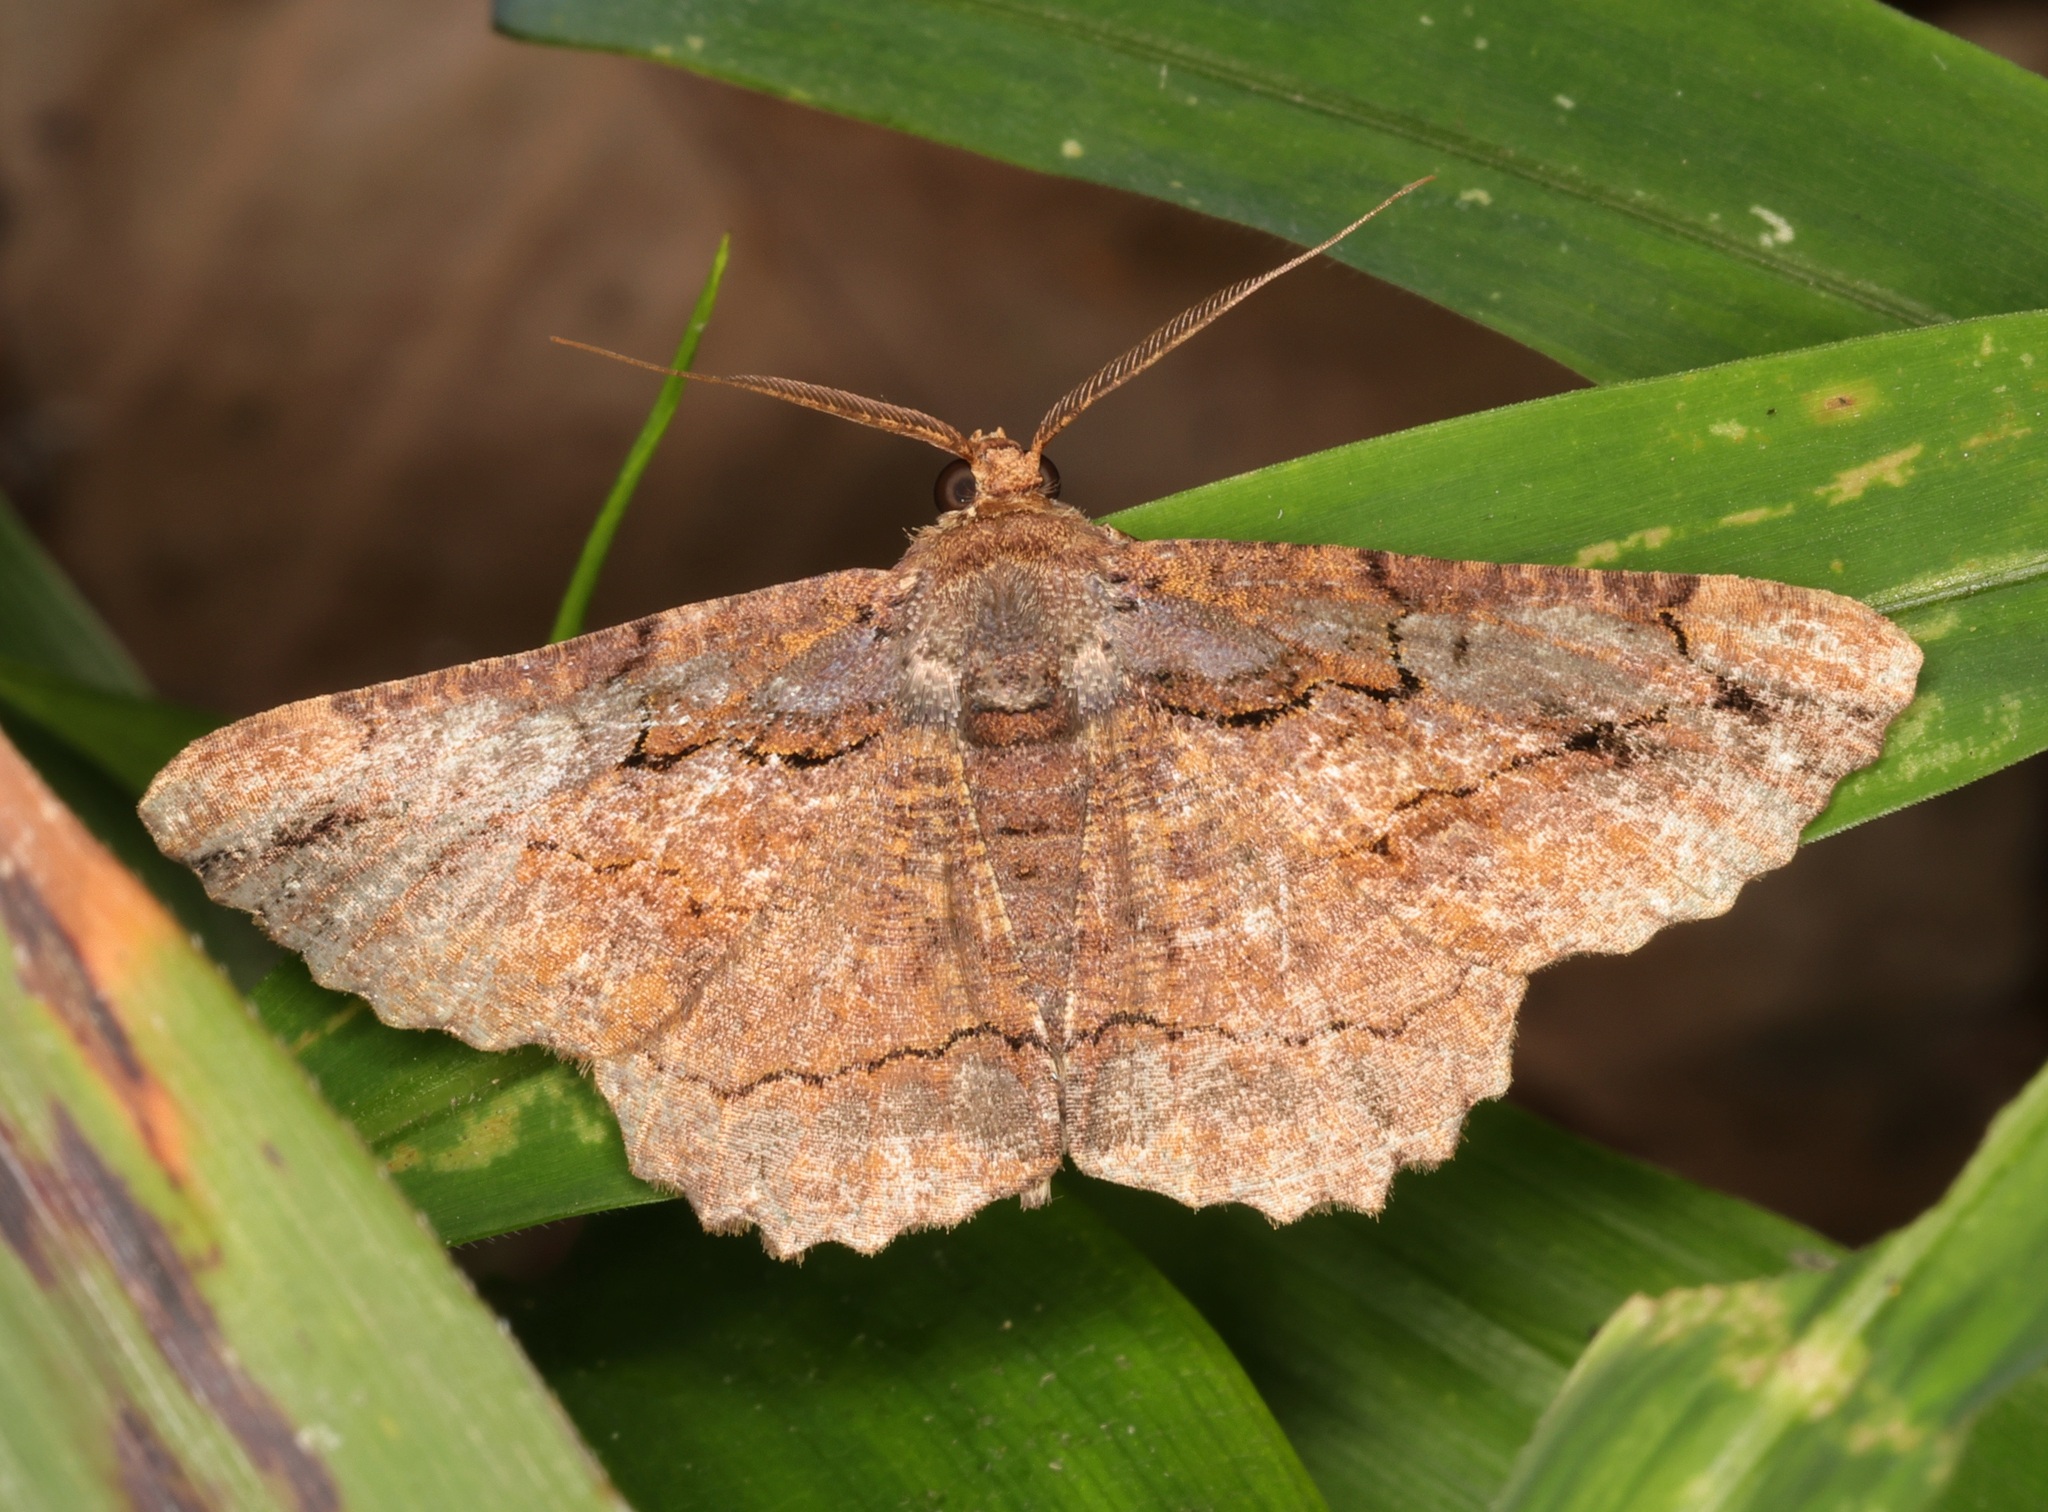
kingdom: Animalia
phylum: Arthropoda
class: Insecta
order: Lepidoptera
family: Geometridae
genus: Dasyboarmia
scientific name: Dasyboarmia subpilosa
